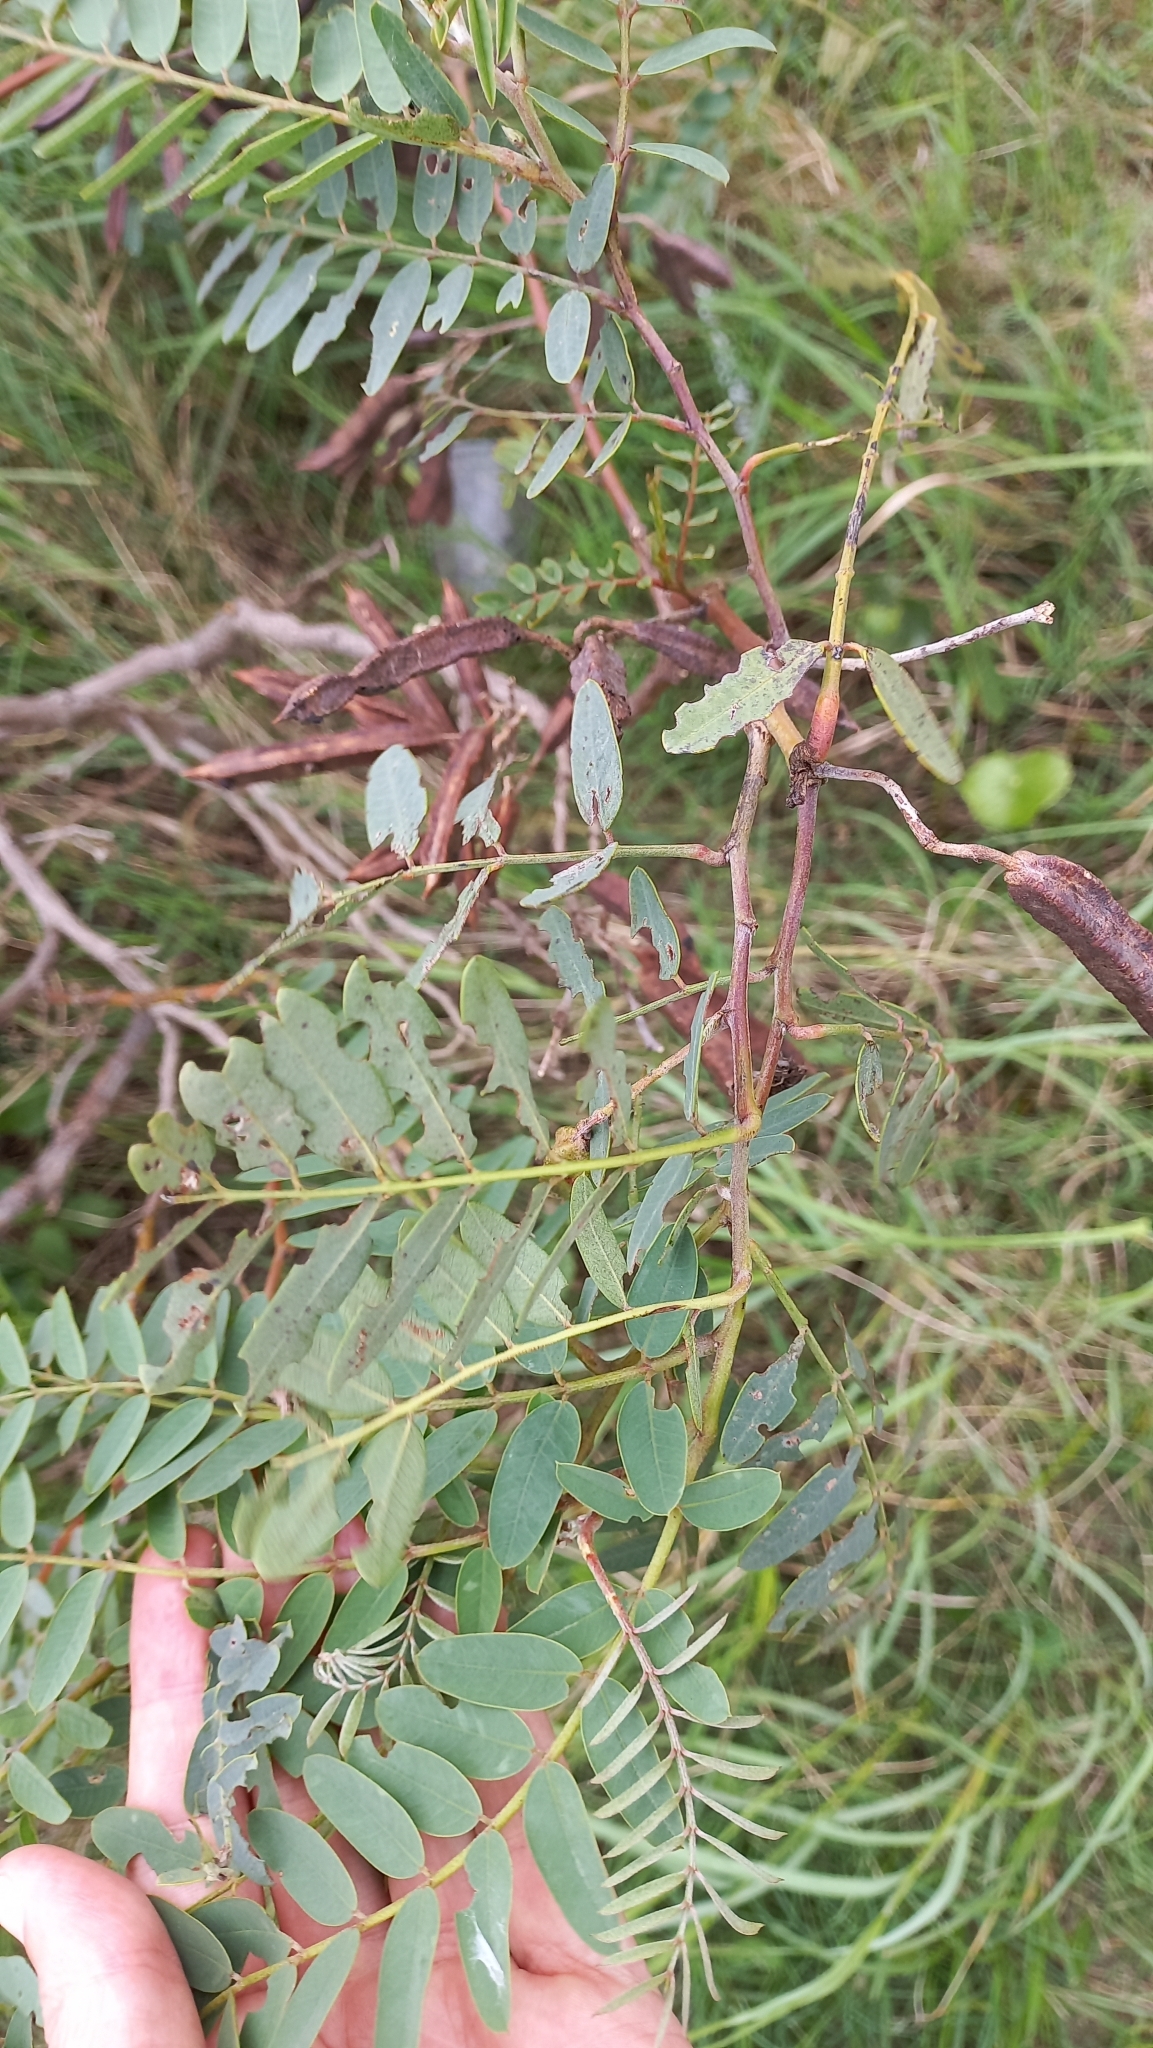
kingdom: Plantae
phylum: Tracheophyta
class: Magnoliopsida
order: Fabales
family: Fabaceae
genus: Sesbania
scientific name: Sesbania virgata
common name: Wand riverhemp
